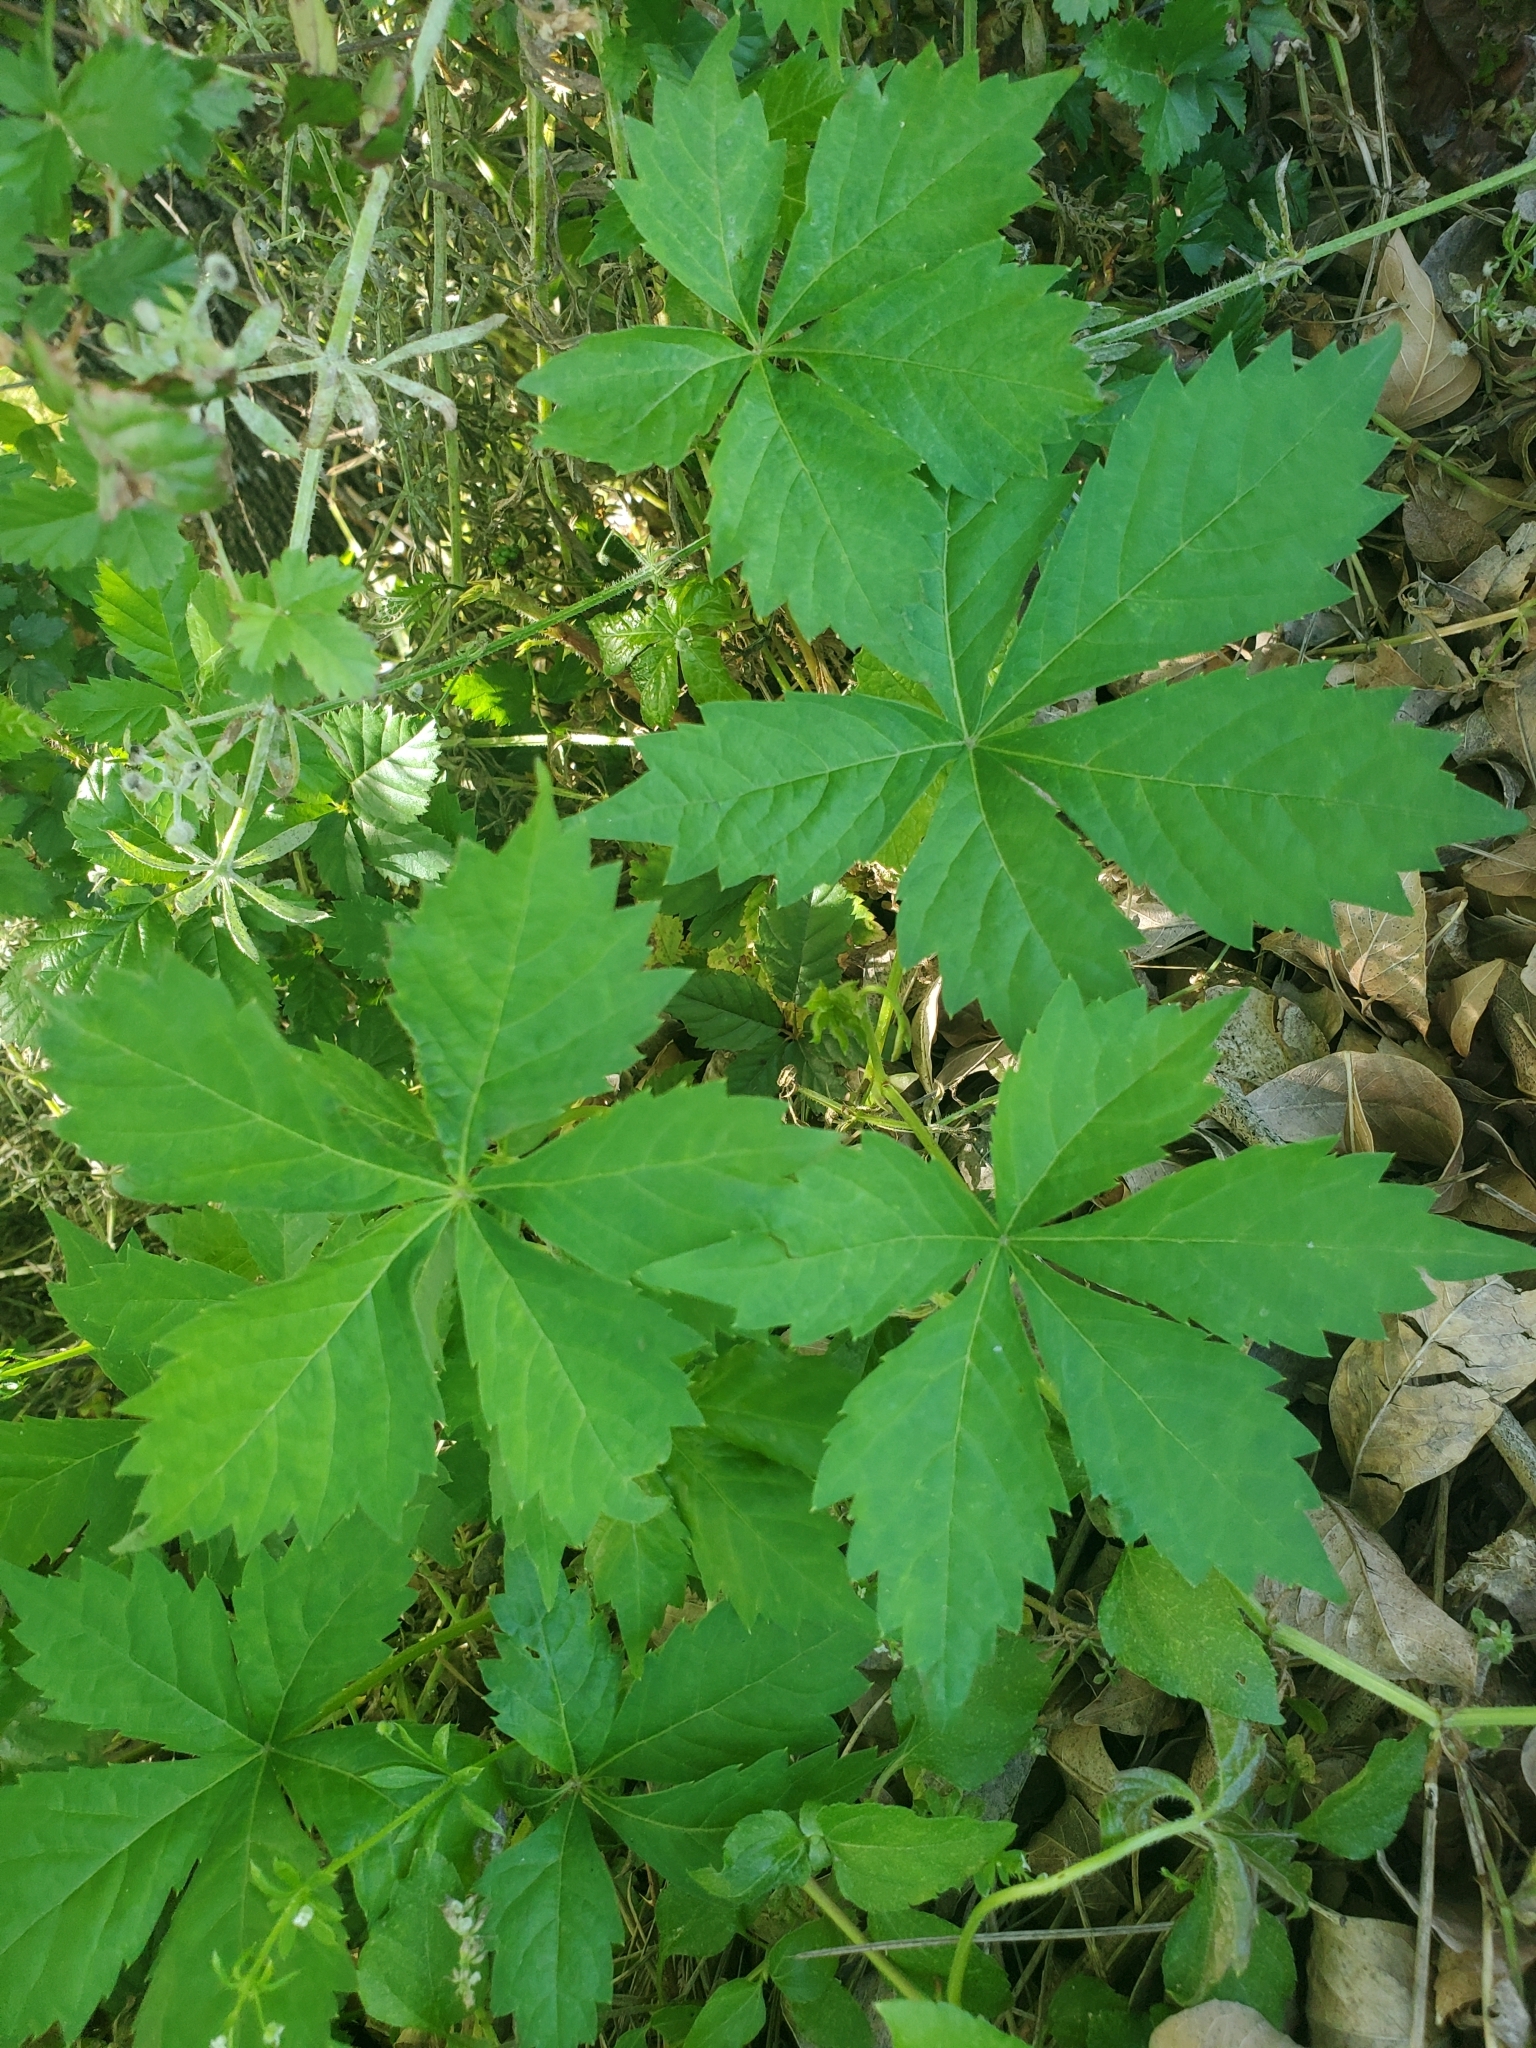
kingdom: Plantae
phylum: Tracheophyta
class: Magnoliopsida
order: Vitales
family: Vitaceae
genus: Parthenocissus
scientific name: Parthenocissus quinquefolia
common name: Virginia-creeper
